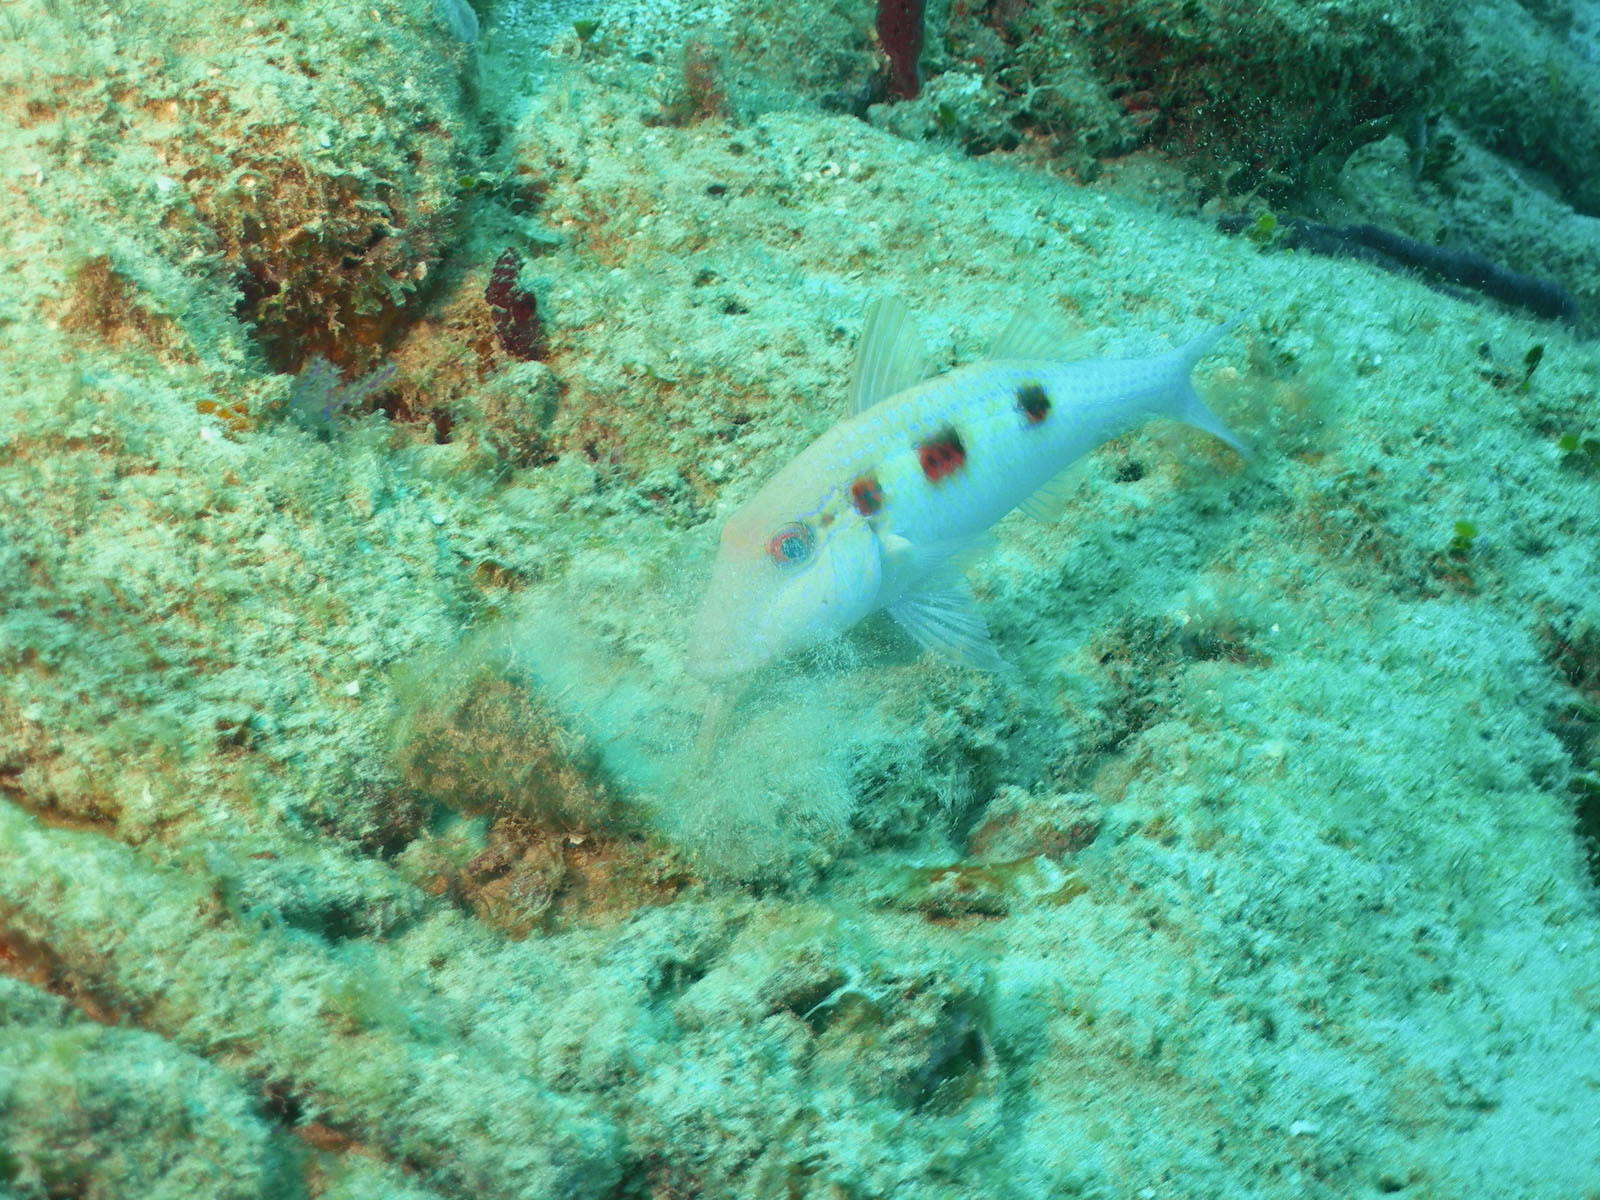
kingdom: Animalia
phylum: Chordata
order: Perciformes
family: Mullidae
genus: Pseudupeneus
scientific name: Pseudupeneus maculatus
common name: Spotted goatfish
